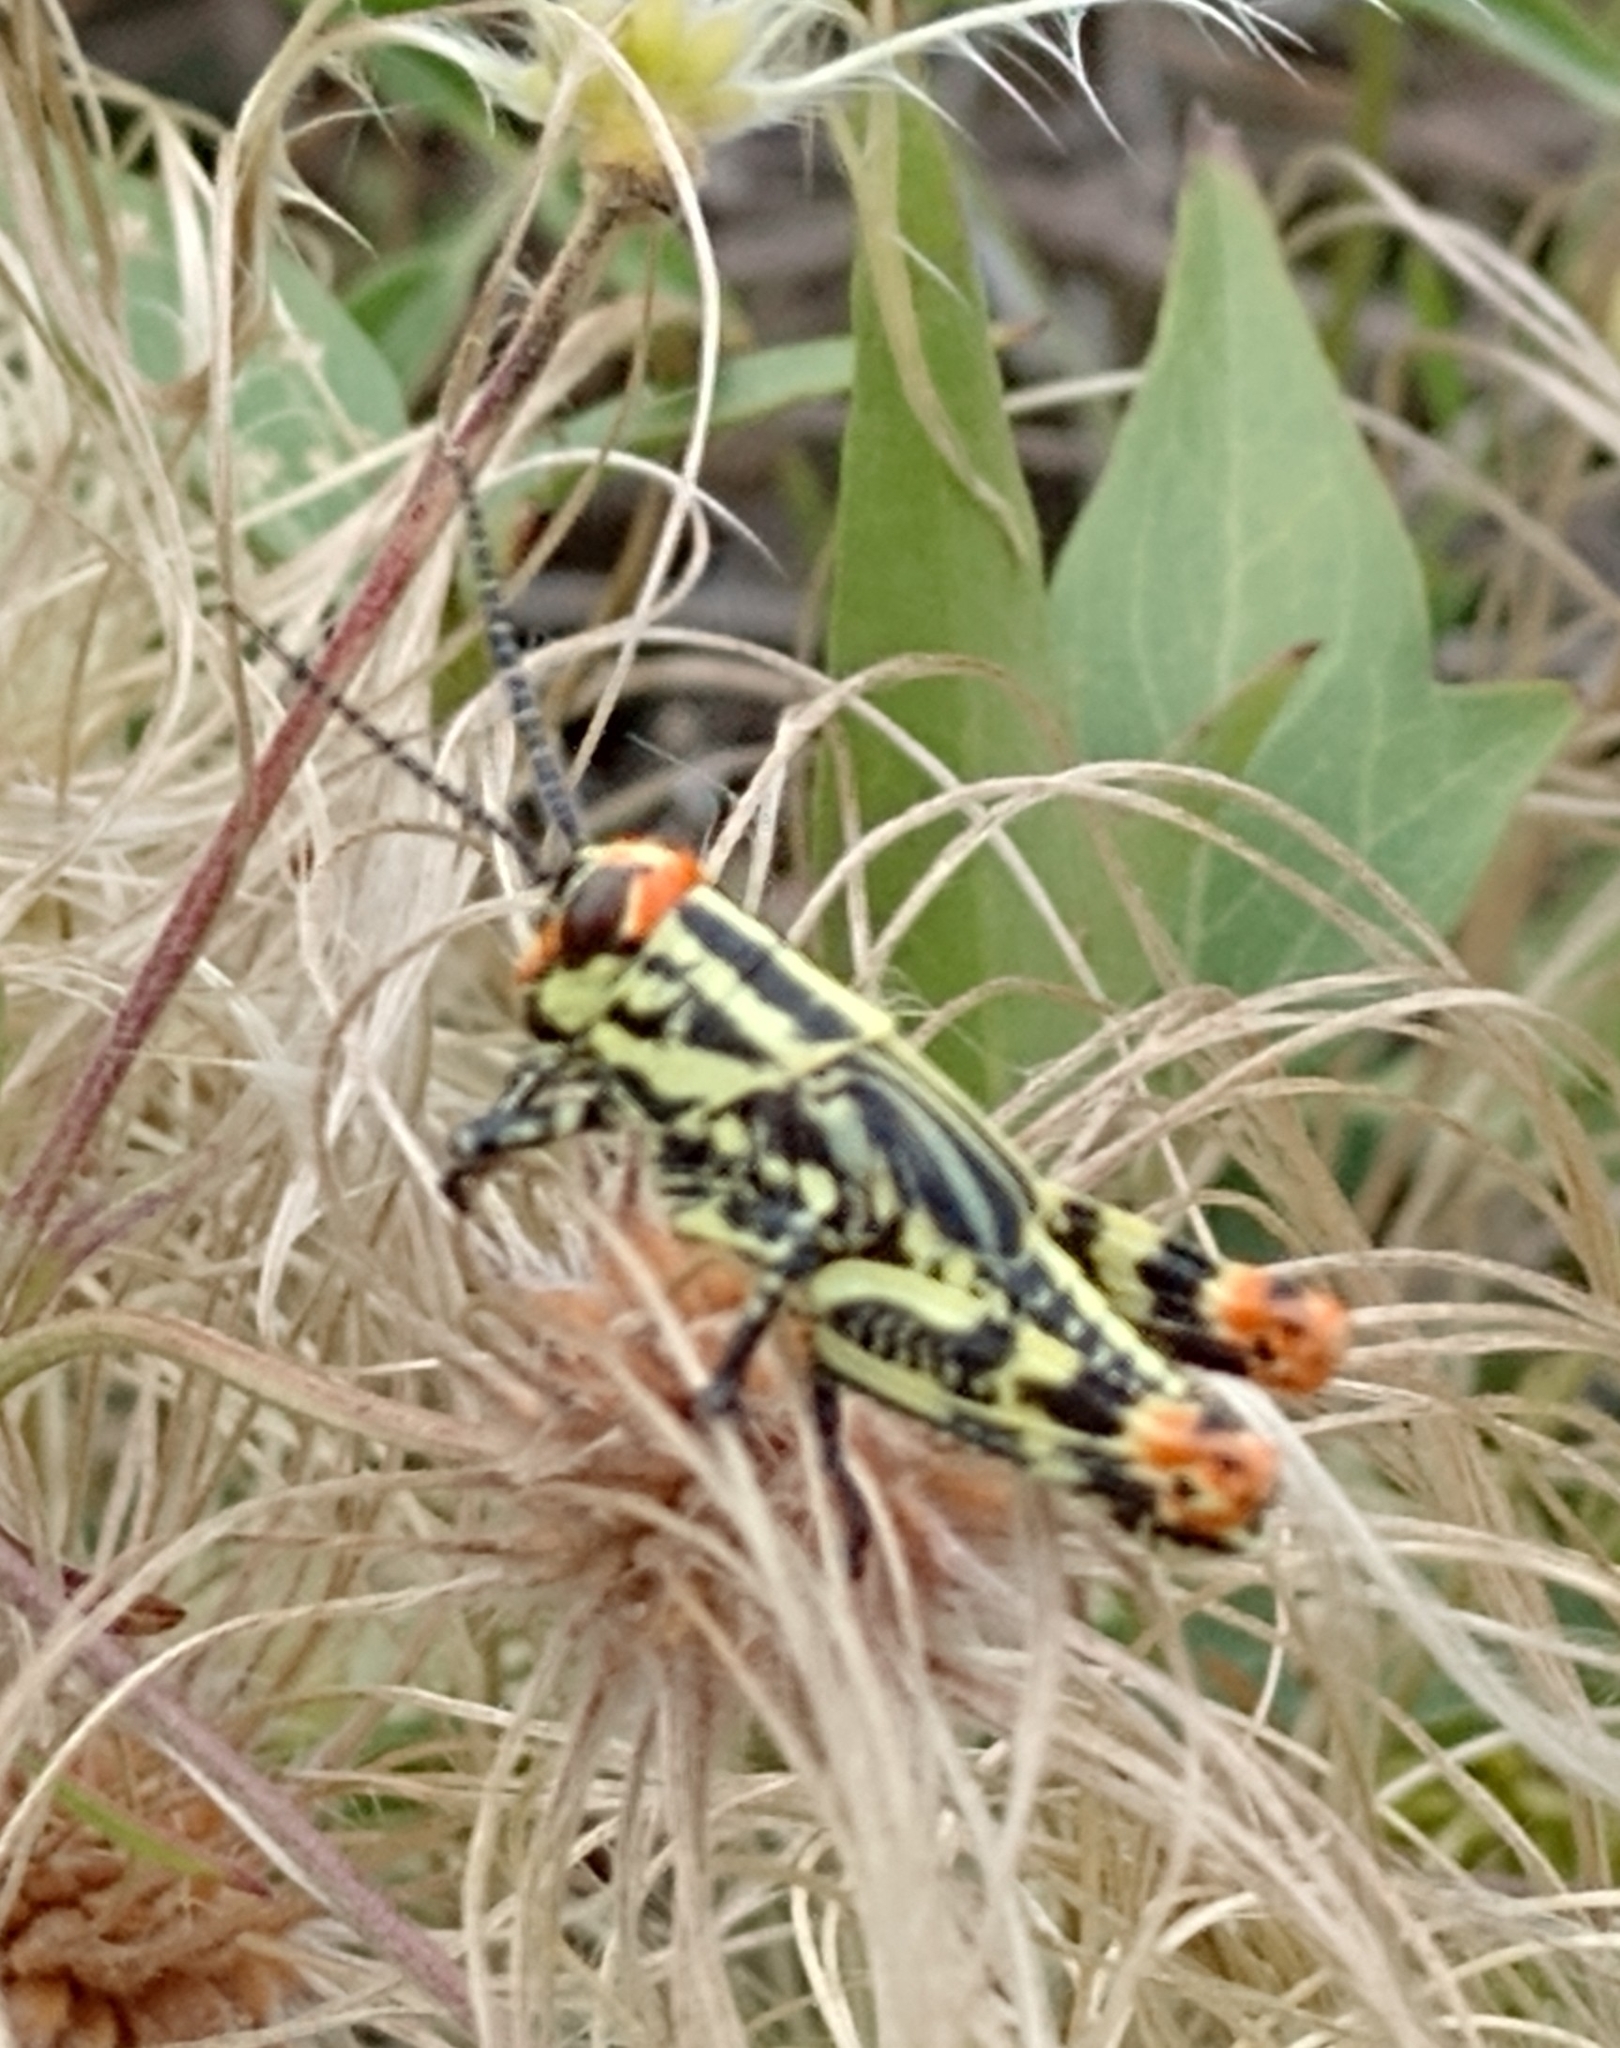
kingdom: Animalia
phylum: Arthropoda
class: Insecta
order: Orthoptera
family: Romaleidae
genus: Diponthus
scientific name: Diponthus puelchus
